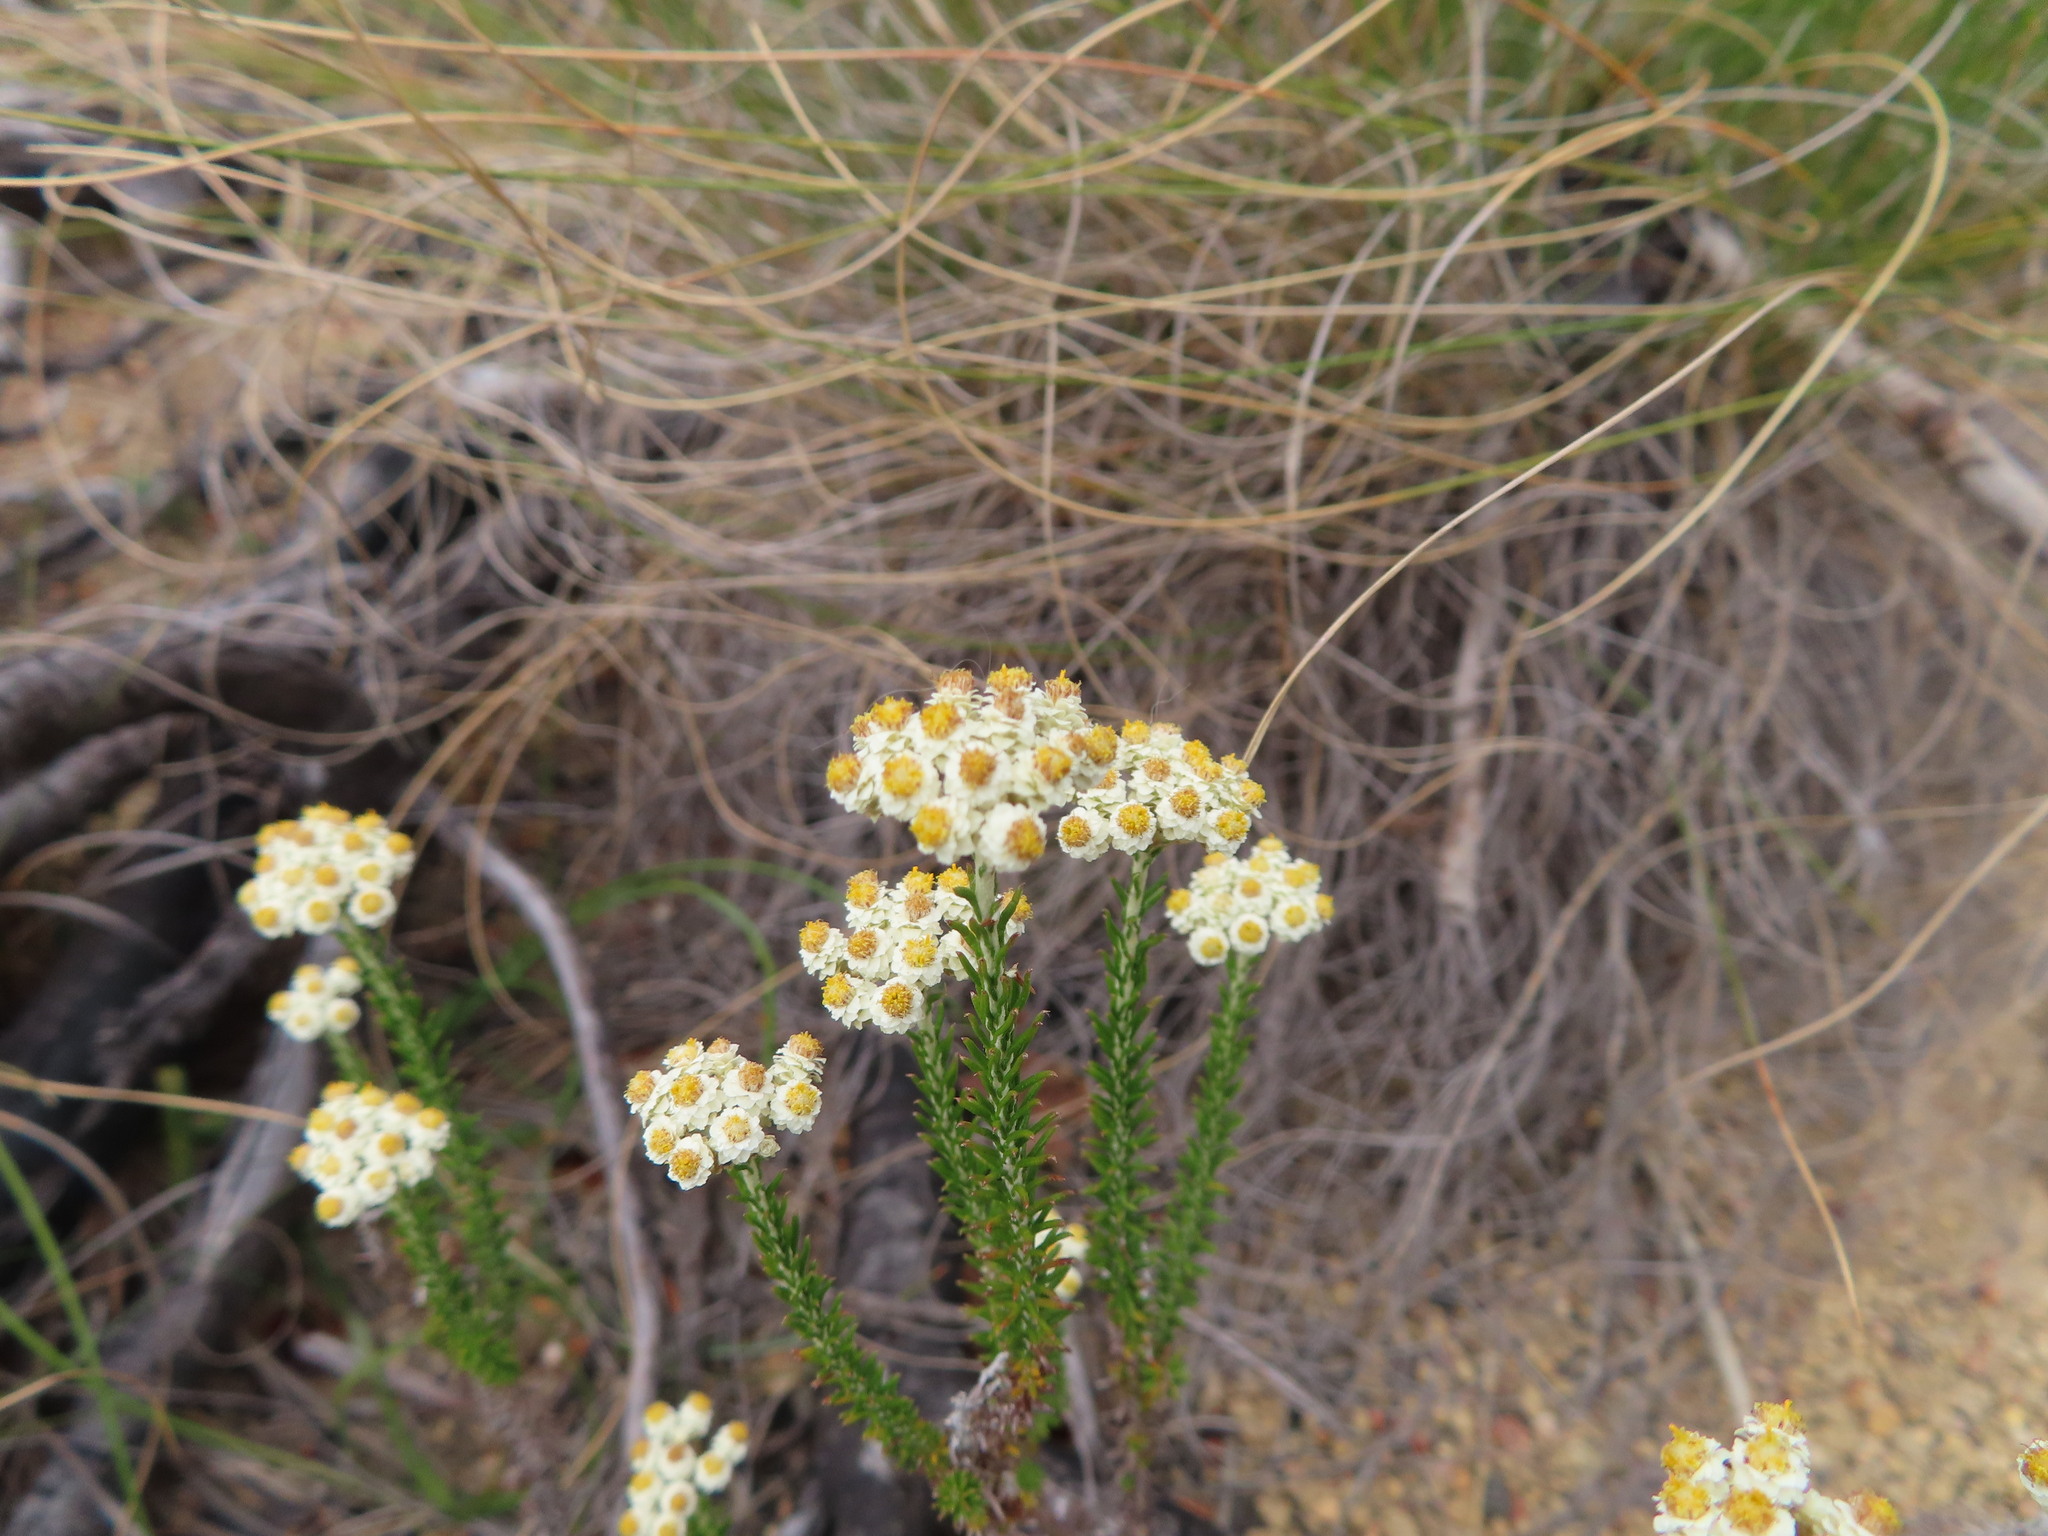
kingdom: Plantae
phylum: Tracheophyta
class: Magnoliopsida
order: Asterales
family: Asteraceae
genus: Helichrysum
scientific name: Helichrysum teretifolium
